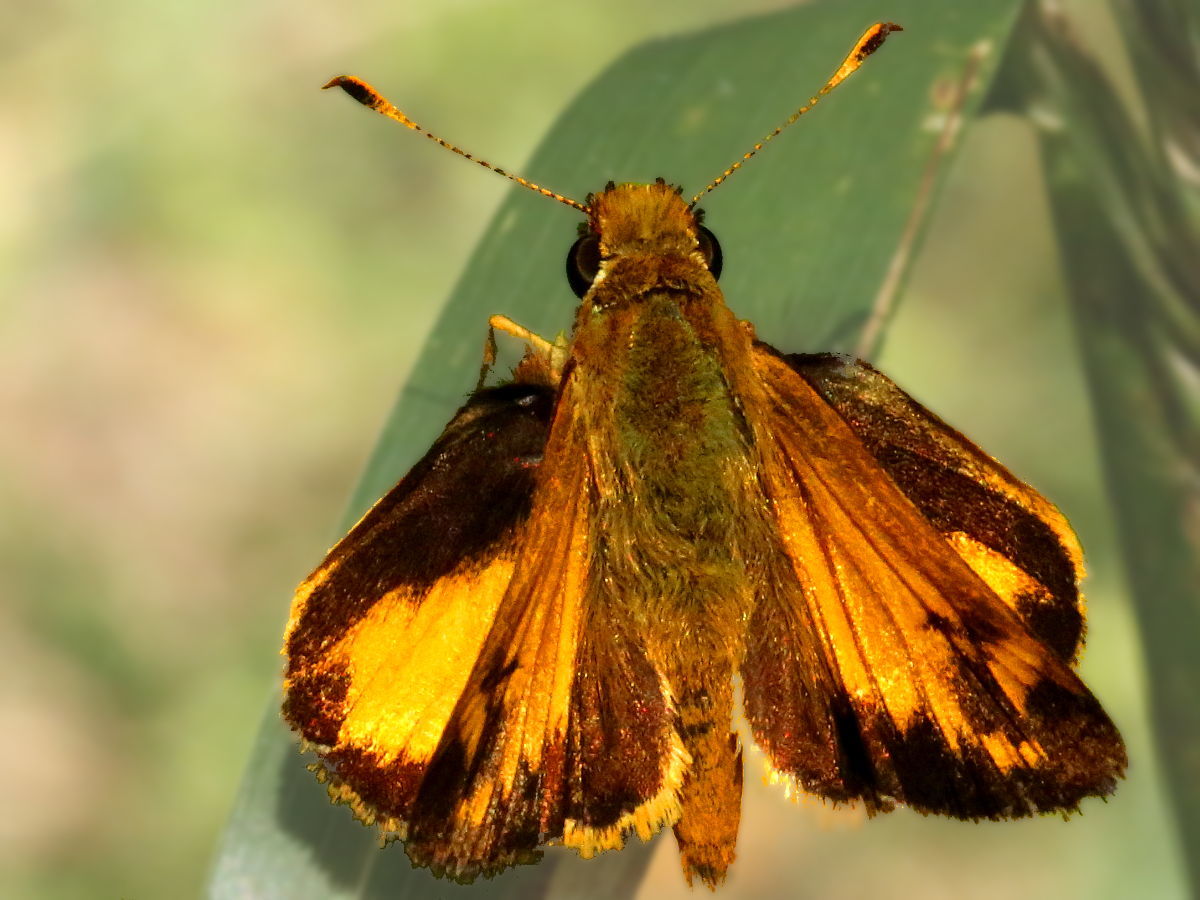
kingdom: Animalia
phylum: Arthropoda
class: Insecta
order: Lepidoptera
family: Hesperiidae
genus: Lon
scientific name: Lon zabulon
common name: Zabulon skipper
